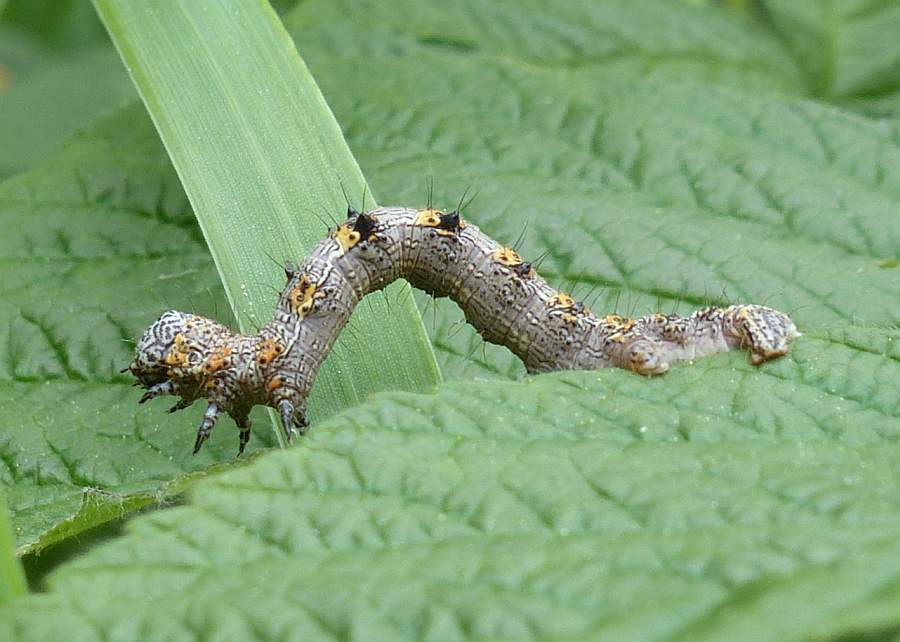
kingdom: Animalia
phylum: Arthropoda
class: Insecta
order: Lepidoptera
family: Geometridae
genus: Phigalia
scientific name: Phigalia titea
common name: Spiny looper
